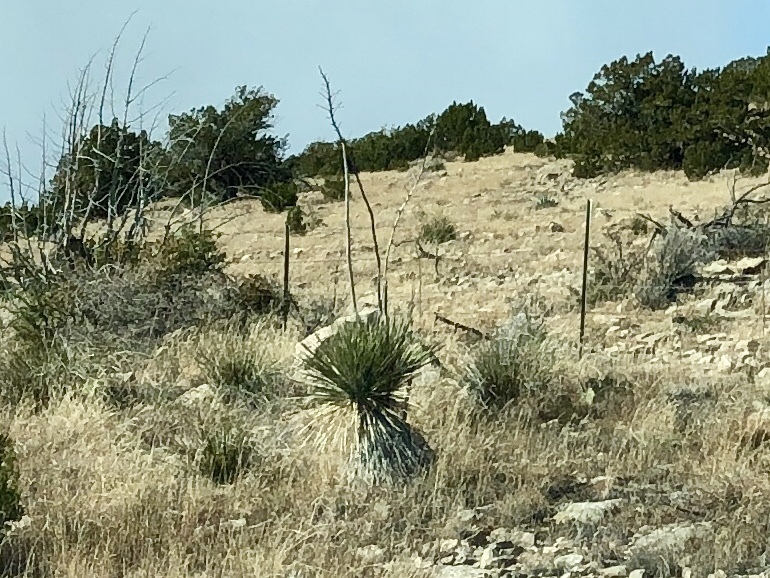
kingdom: Plantae
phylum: Tracheophyta
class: Liliopsida
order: Asparagales
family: Asparagaceae
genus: Yucca
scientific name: Yucca elata
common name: Palmella
